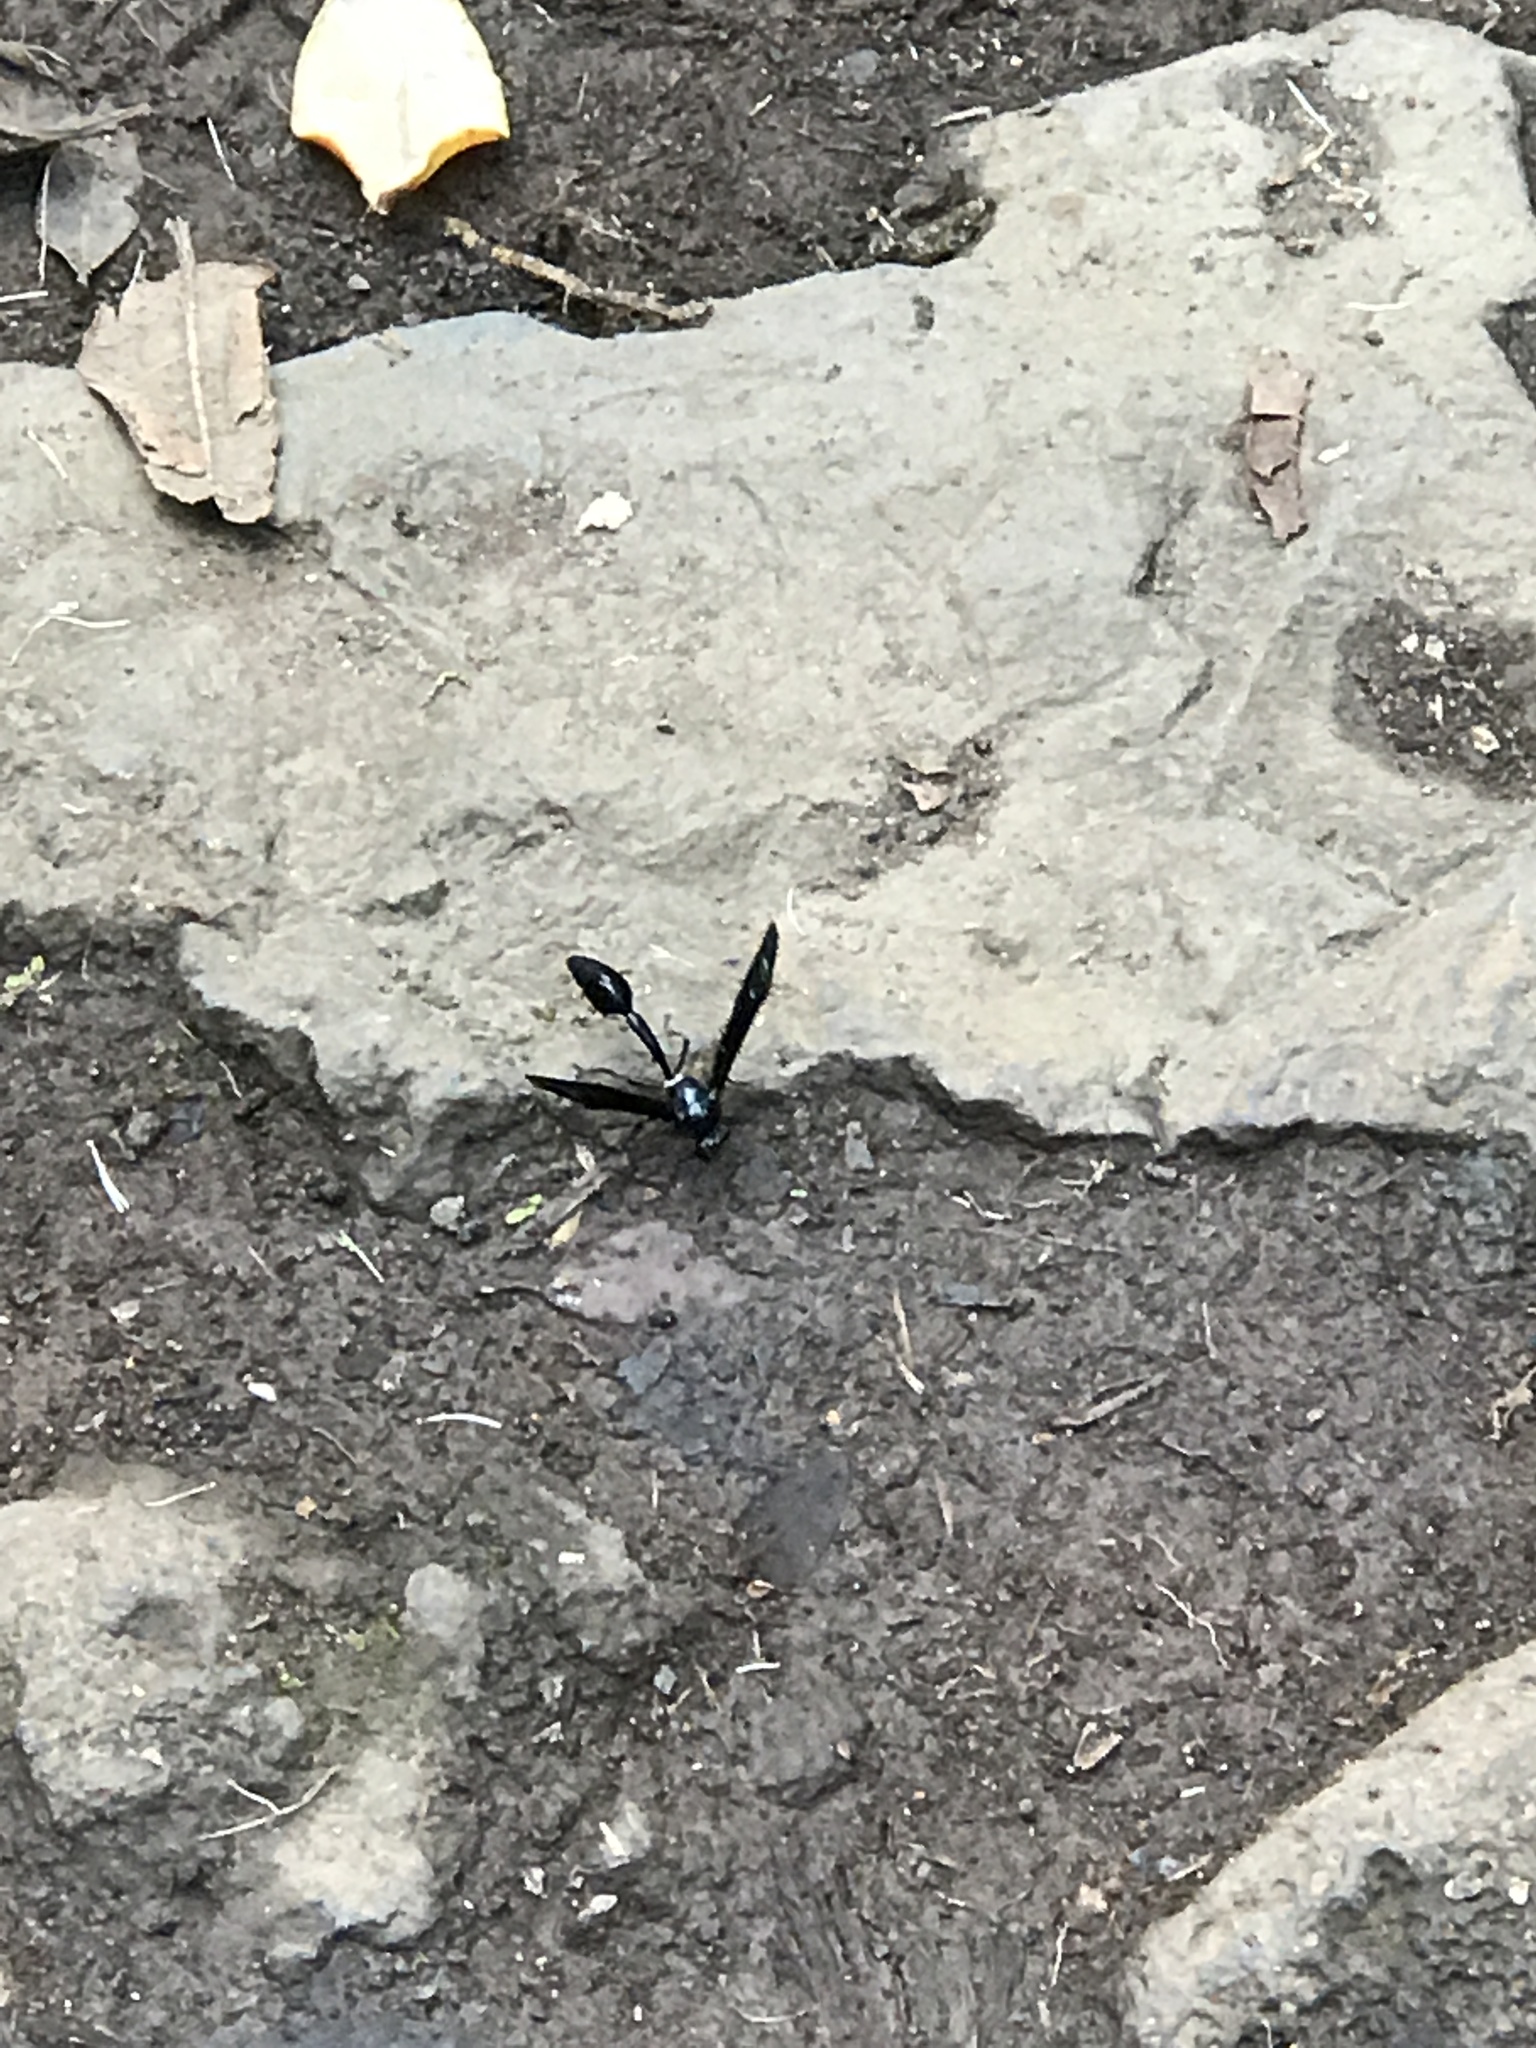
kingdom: Animalia
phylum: Arthropoda
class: Insecta
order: Hymenoptera
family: Eumenidae
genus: Phimenes
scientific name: Phimenes curvatus
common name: Black delta vespid wasp
